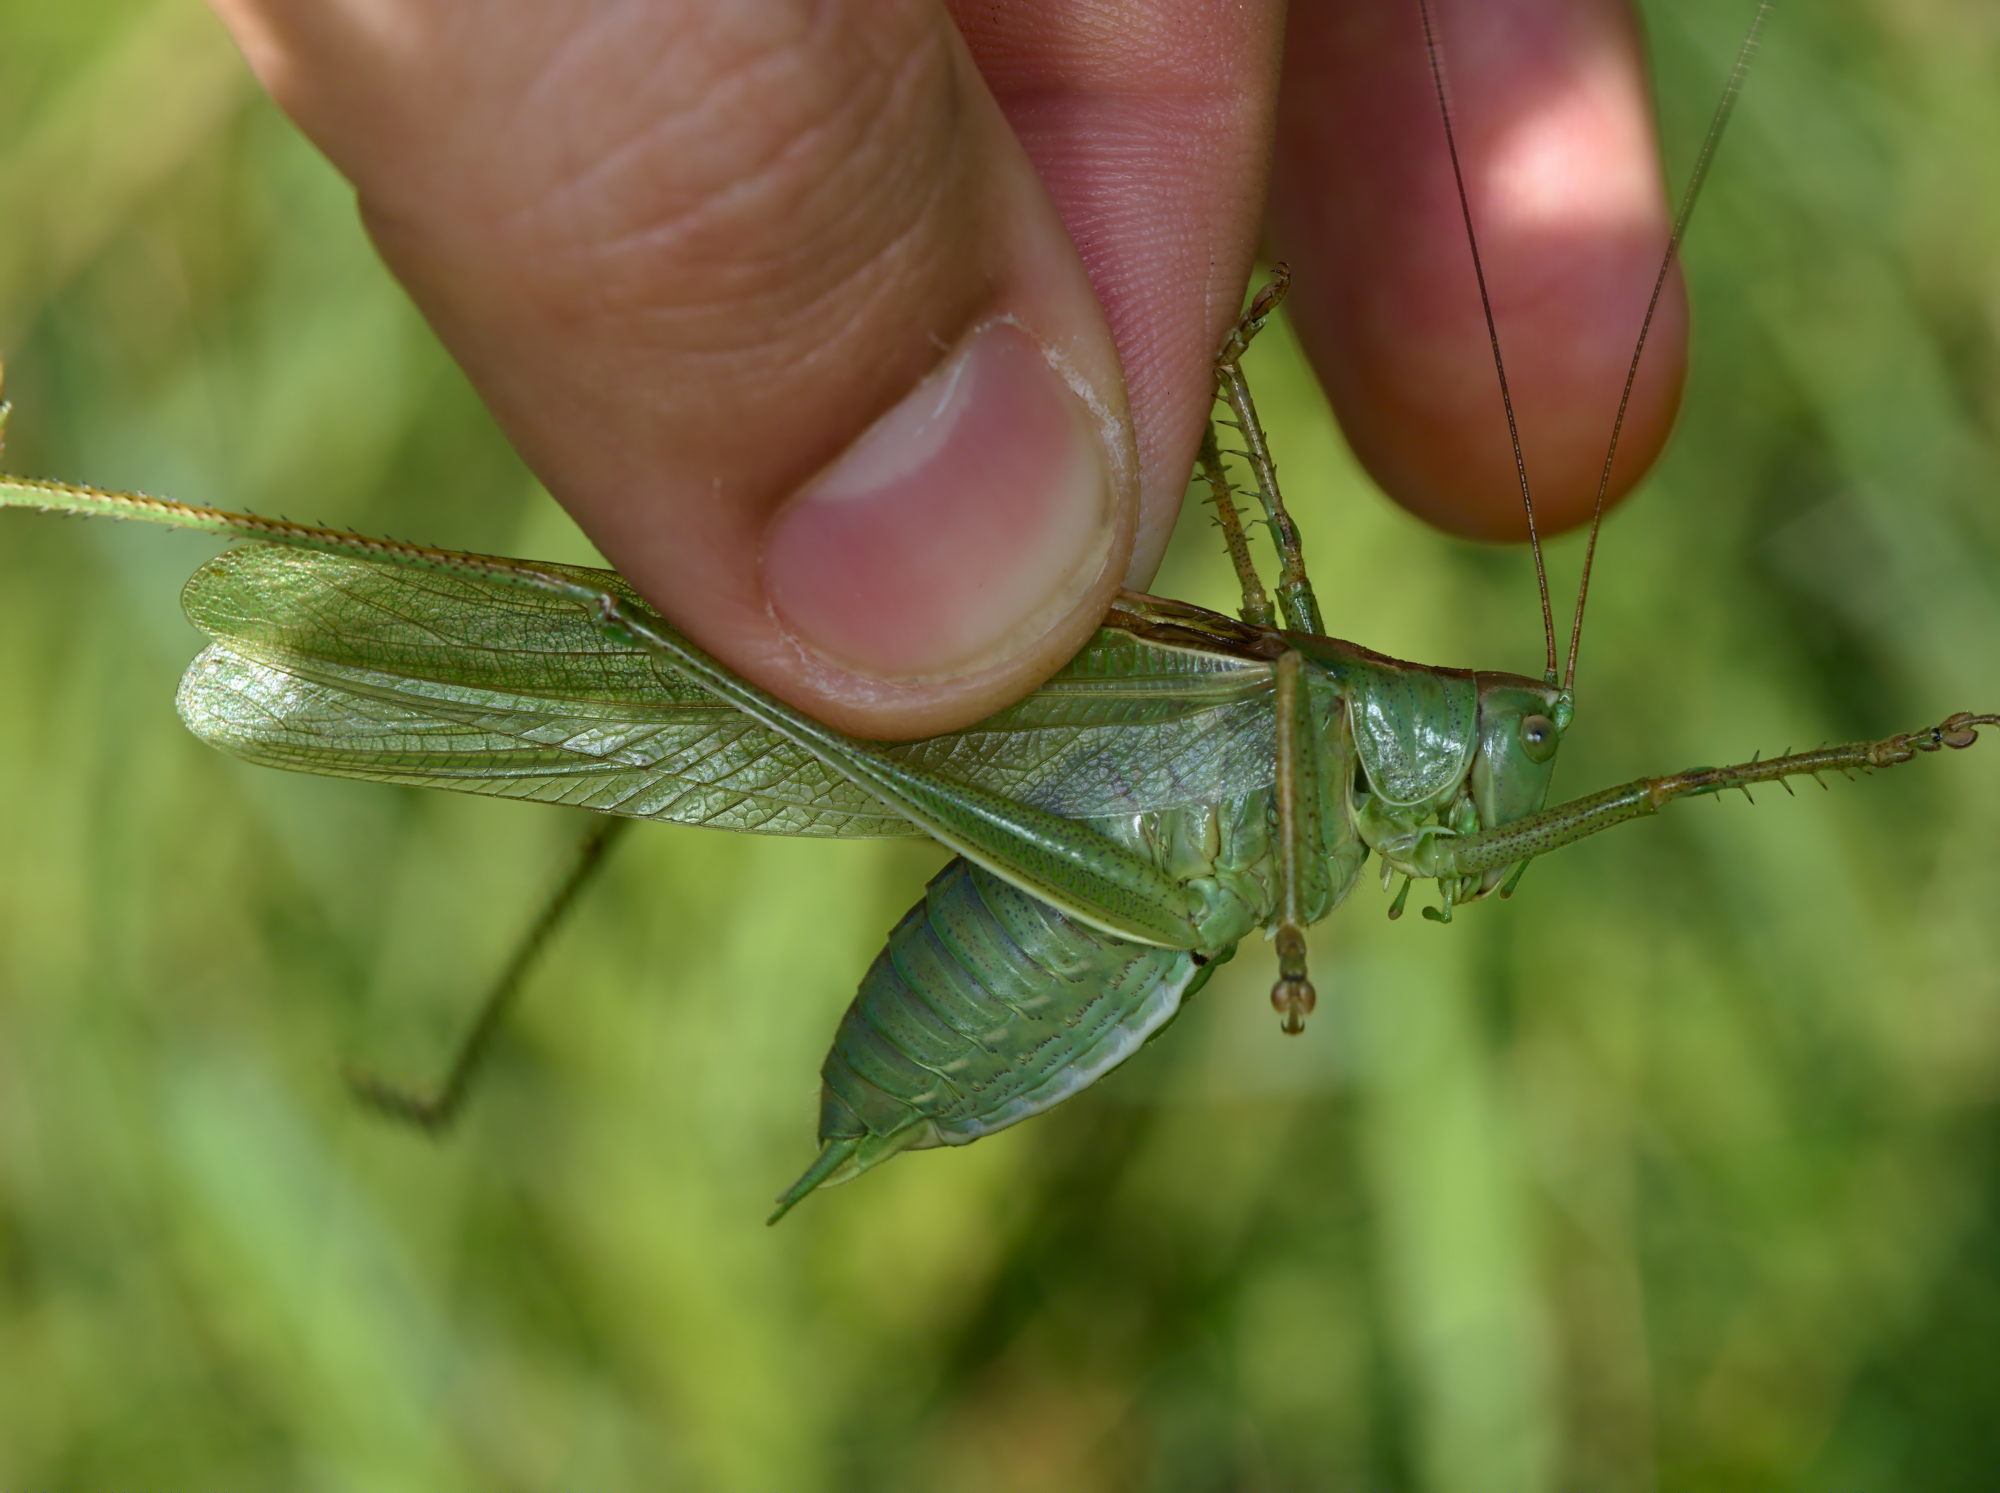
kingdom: Animalia
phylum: Arthropoda
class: Insecta
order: Orthoptera
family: Tettigoniidae
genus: Tettigonia
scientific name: Tettigonia viridissima
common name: Great green bush-cricket
